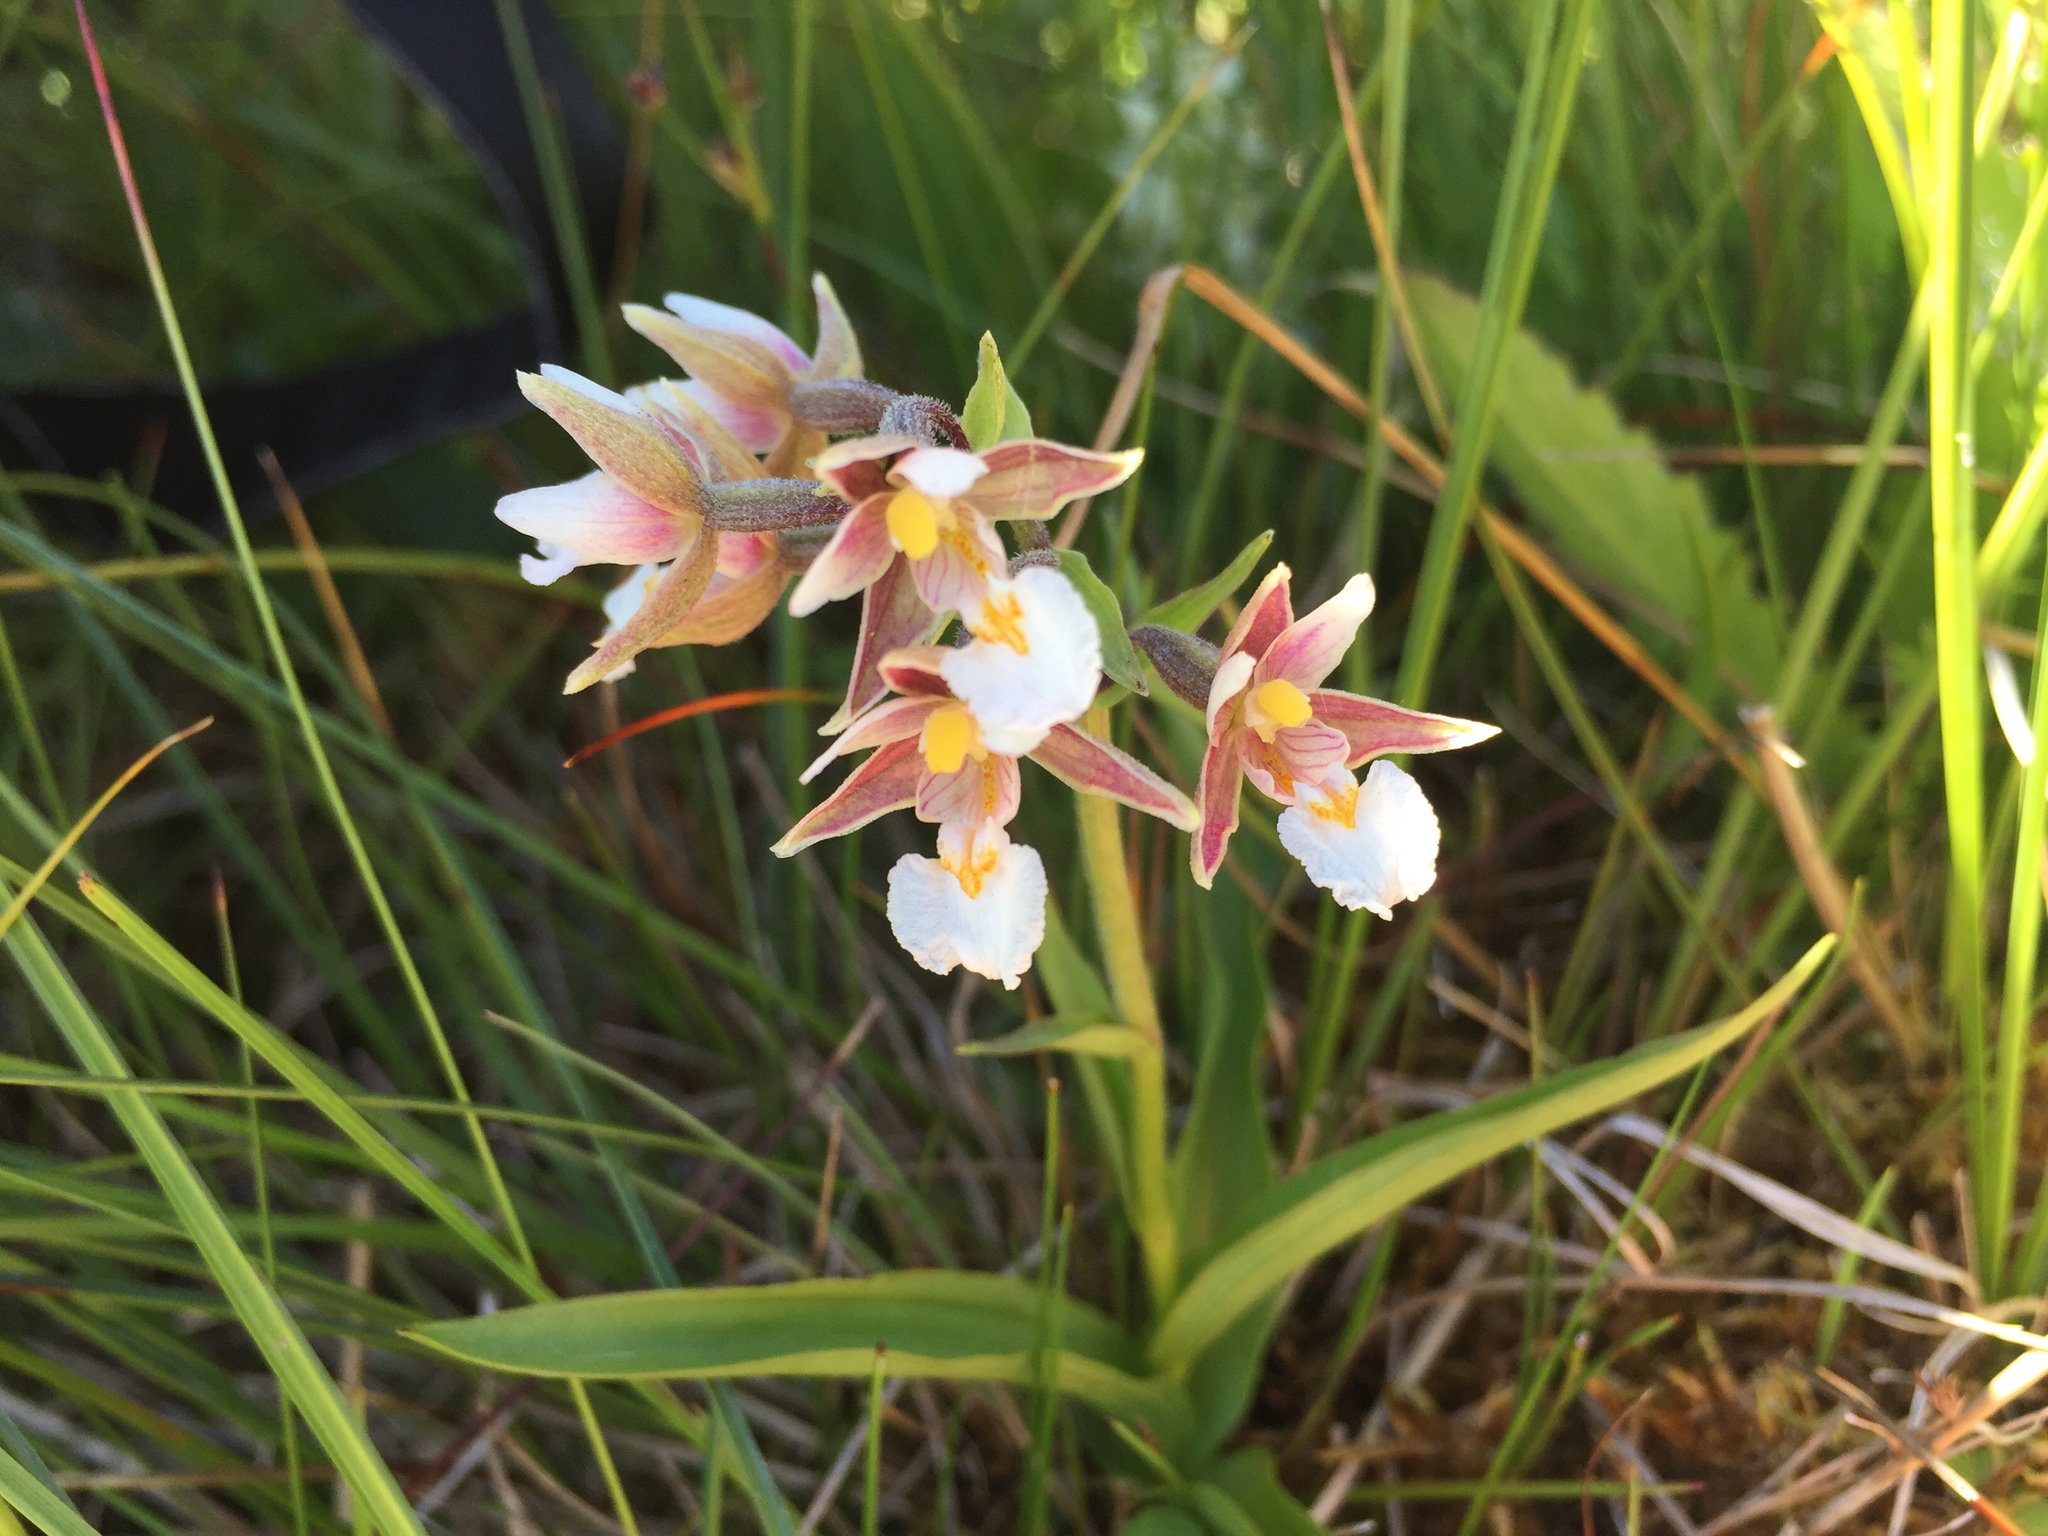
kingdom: Plantae
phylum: Tracheophyta
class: Liliopsida
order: Asparagales
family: Orchidaceae
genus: Epipactis
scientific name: Epipactis palustris
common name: Marsh helleborine
